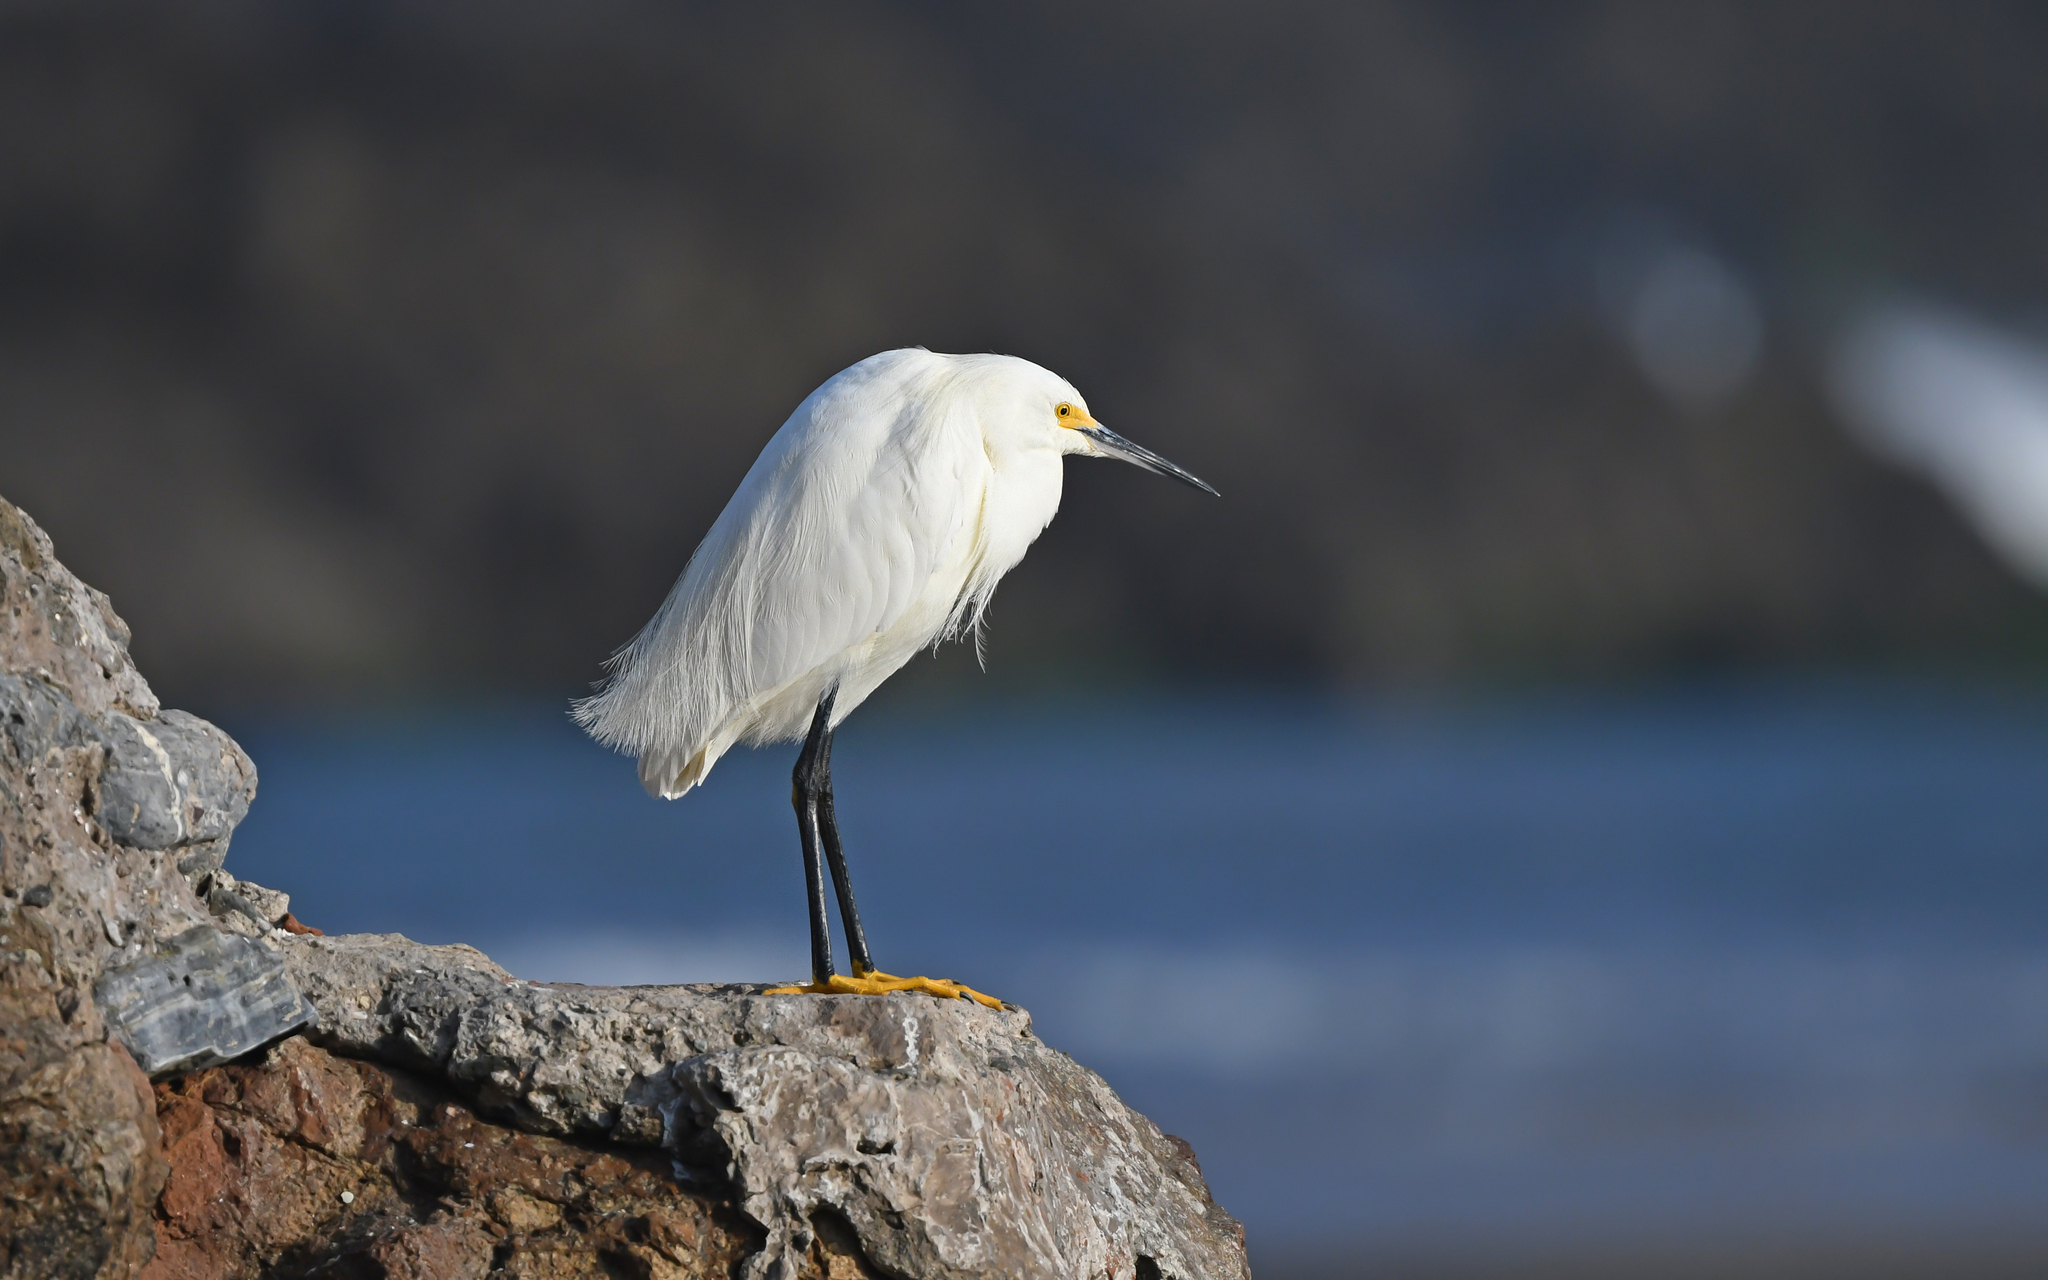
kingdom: Animalia
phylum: Chordata
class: Aves
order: Pelecaniformes
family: Ardeidae
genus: Egretta
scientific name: Egretta thula
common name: Snowy egret
